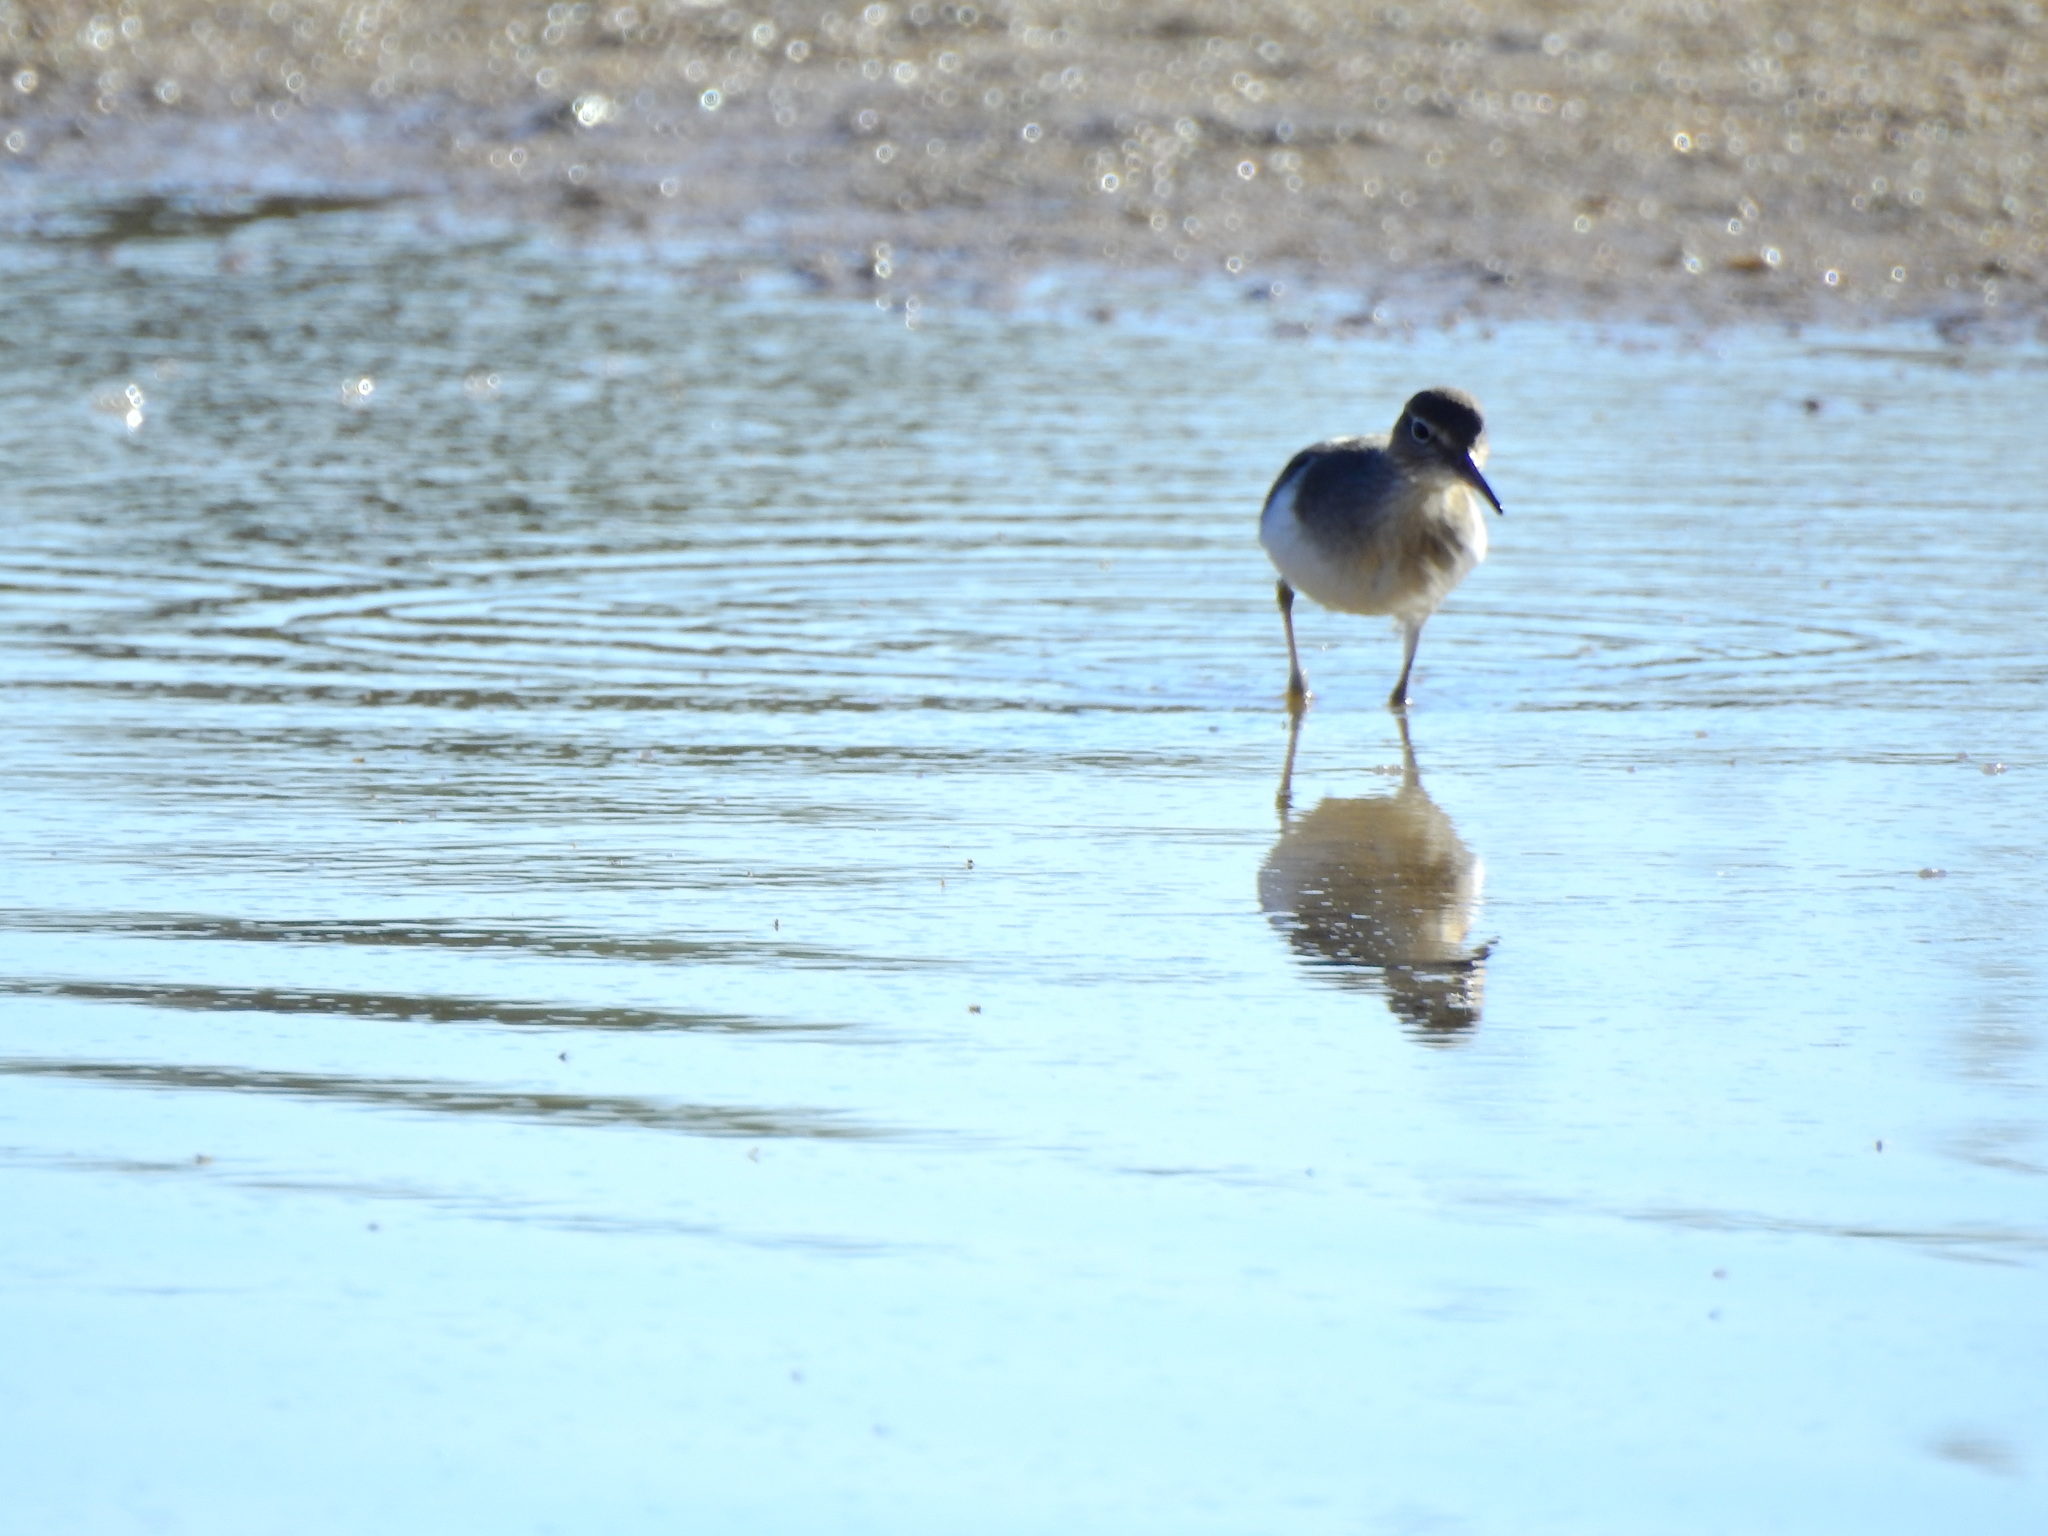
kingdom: Animalia
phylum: Chordata
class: Aves
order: Charadriiformes
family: Scolopacidae
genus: Actitis
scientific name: Actitis hypoleucos
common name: Common sandpiper
